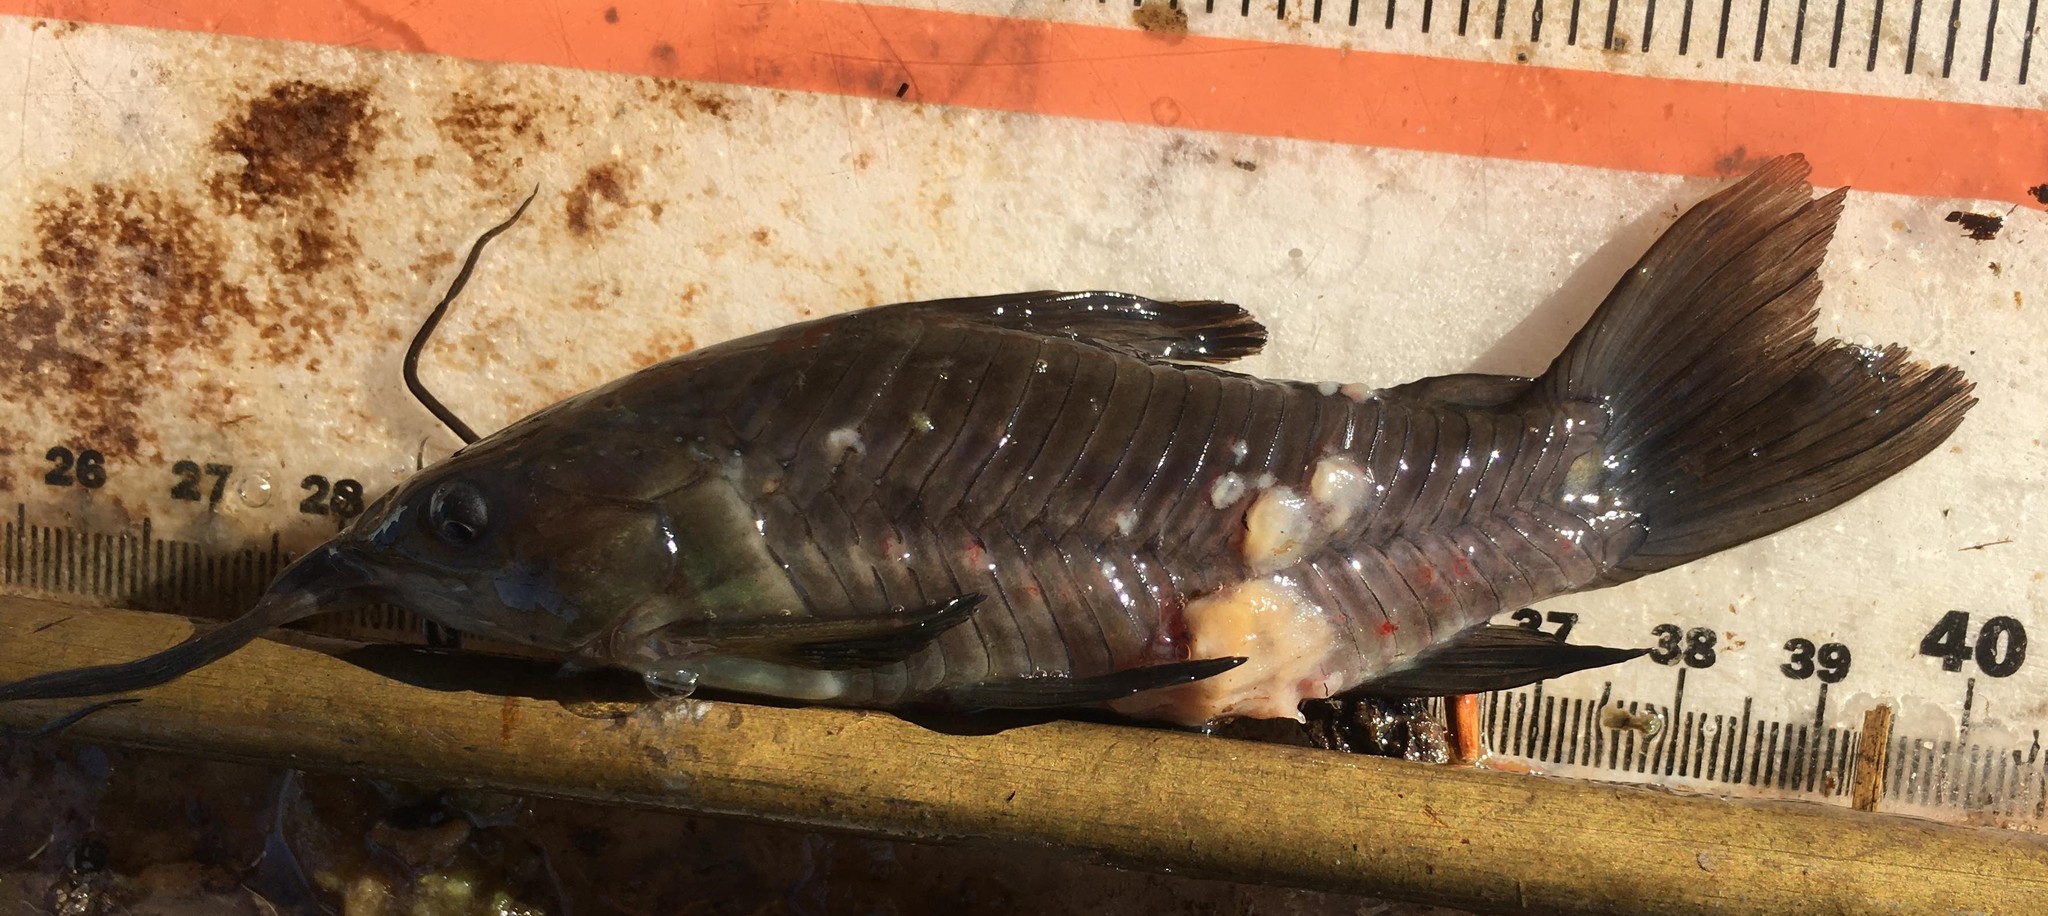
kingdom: Animalia
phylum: Chordata
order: Siluriformes
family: Callichthyidae
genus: Hoplosternum
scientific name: Hoplosternum littorale
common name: Brown hoplo
